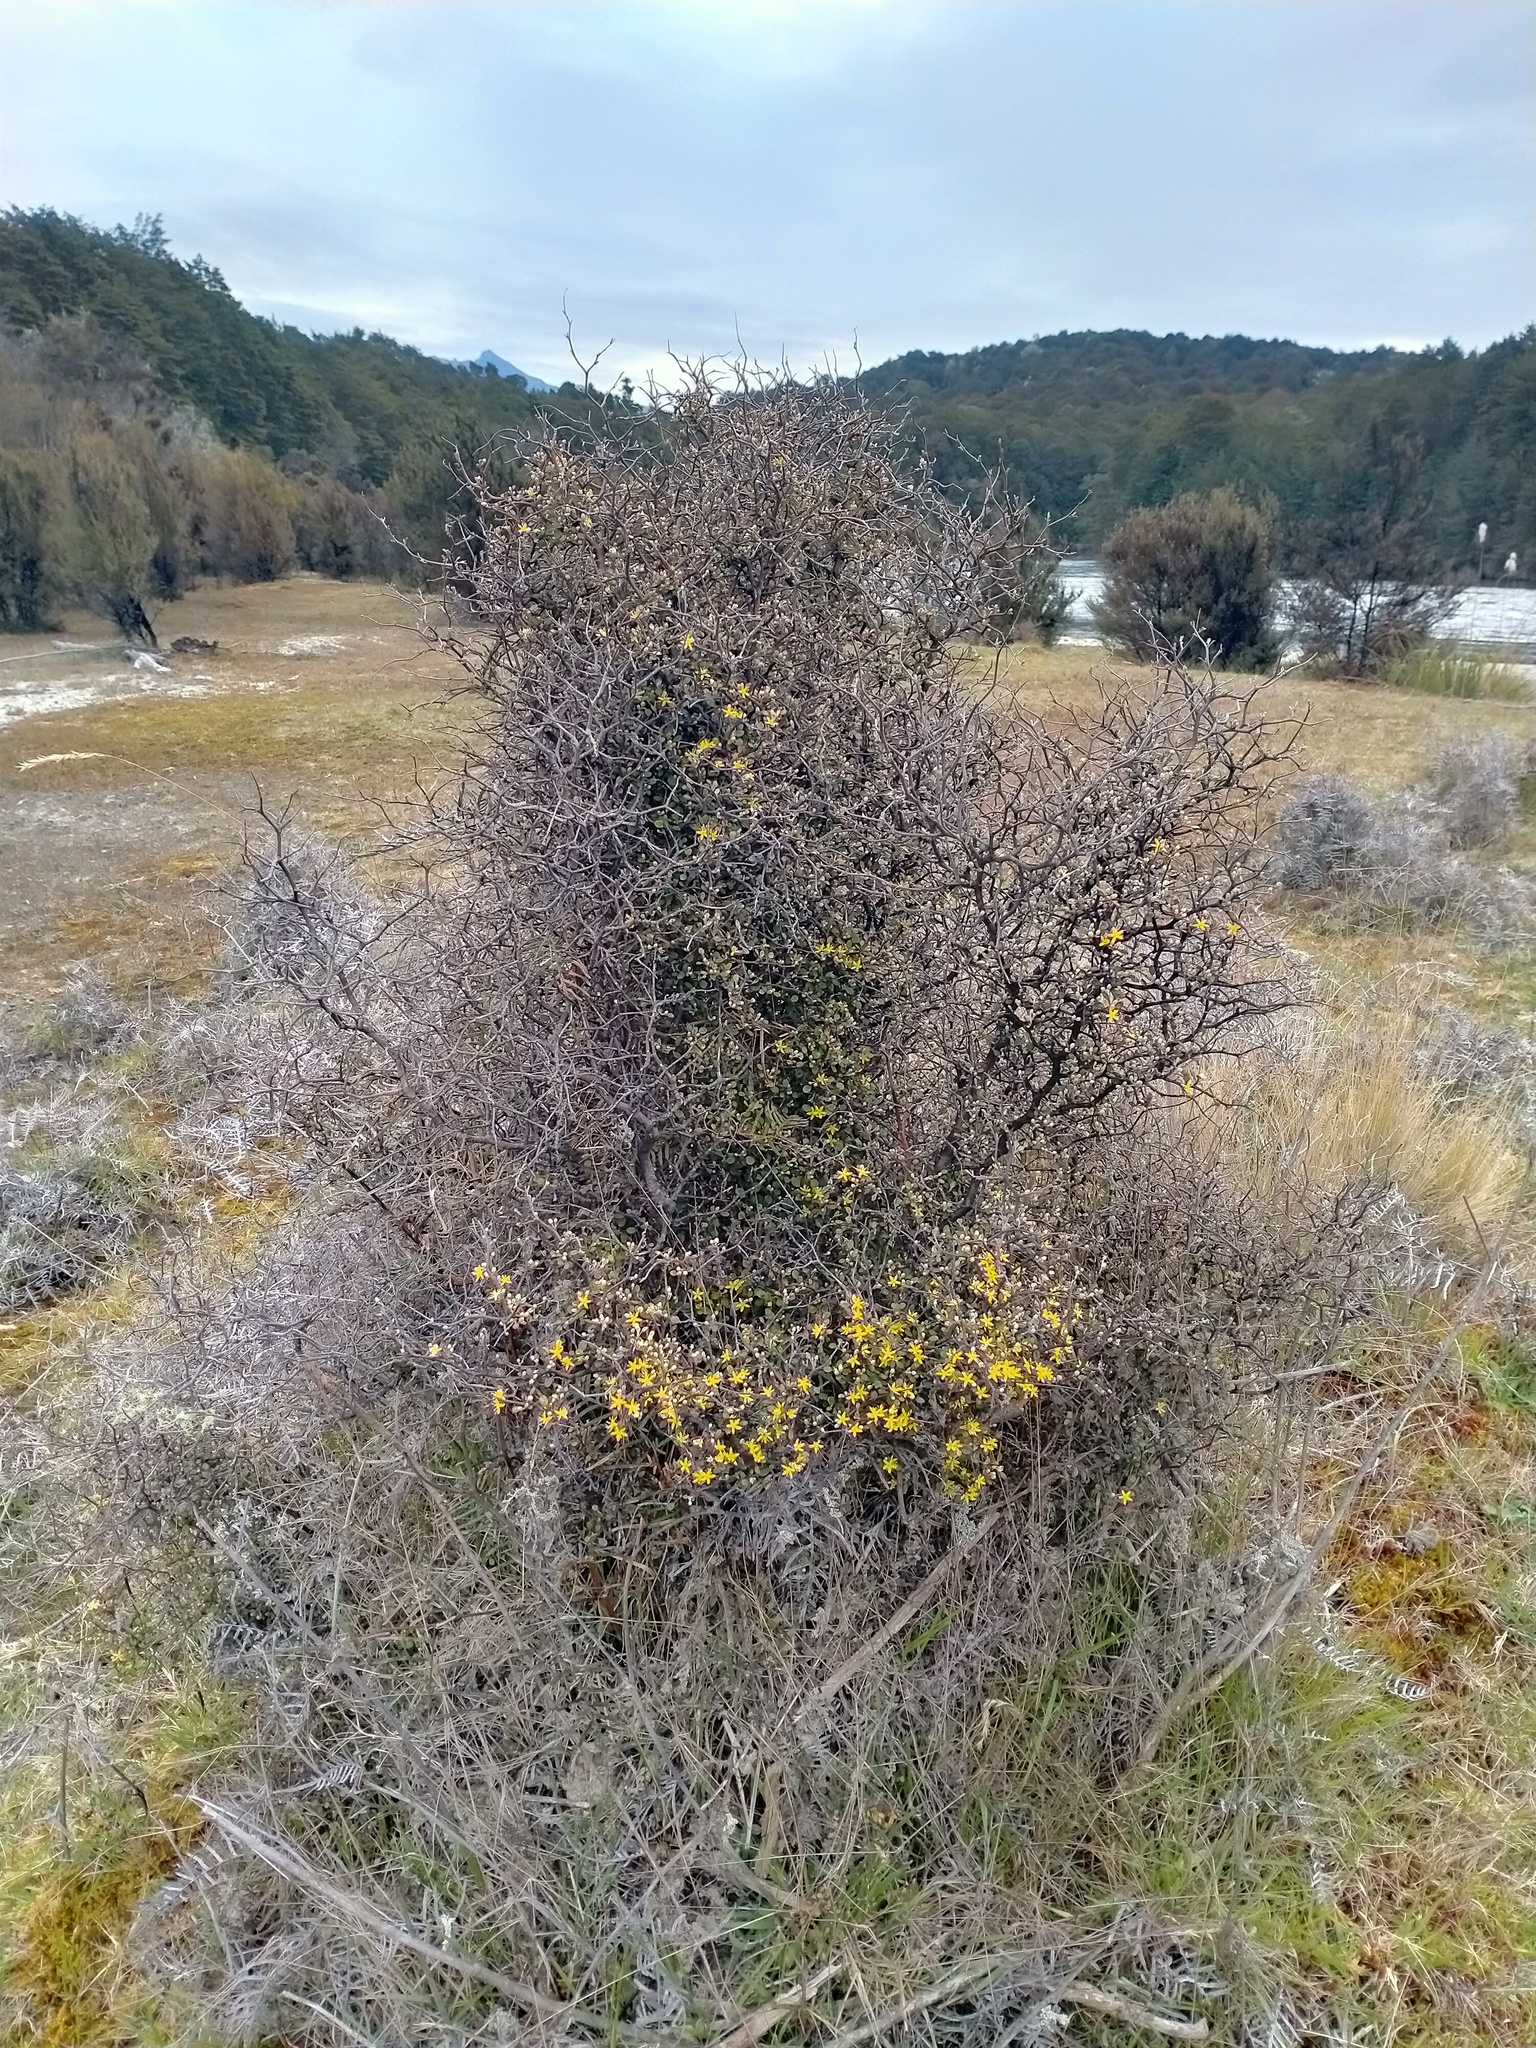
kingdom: Plantae
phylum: Tracheophyta
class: Magnoliopsida
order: Asterales
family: Argophyllaceae
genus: Corokia
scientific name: Corokia cotoneaster
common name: Wire nettingbush
